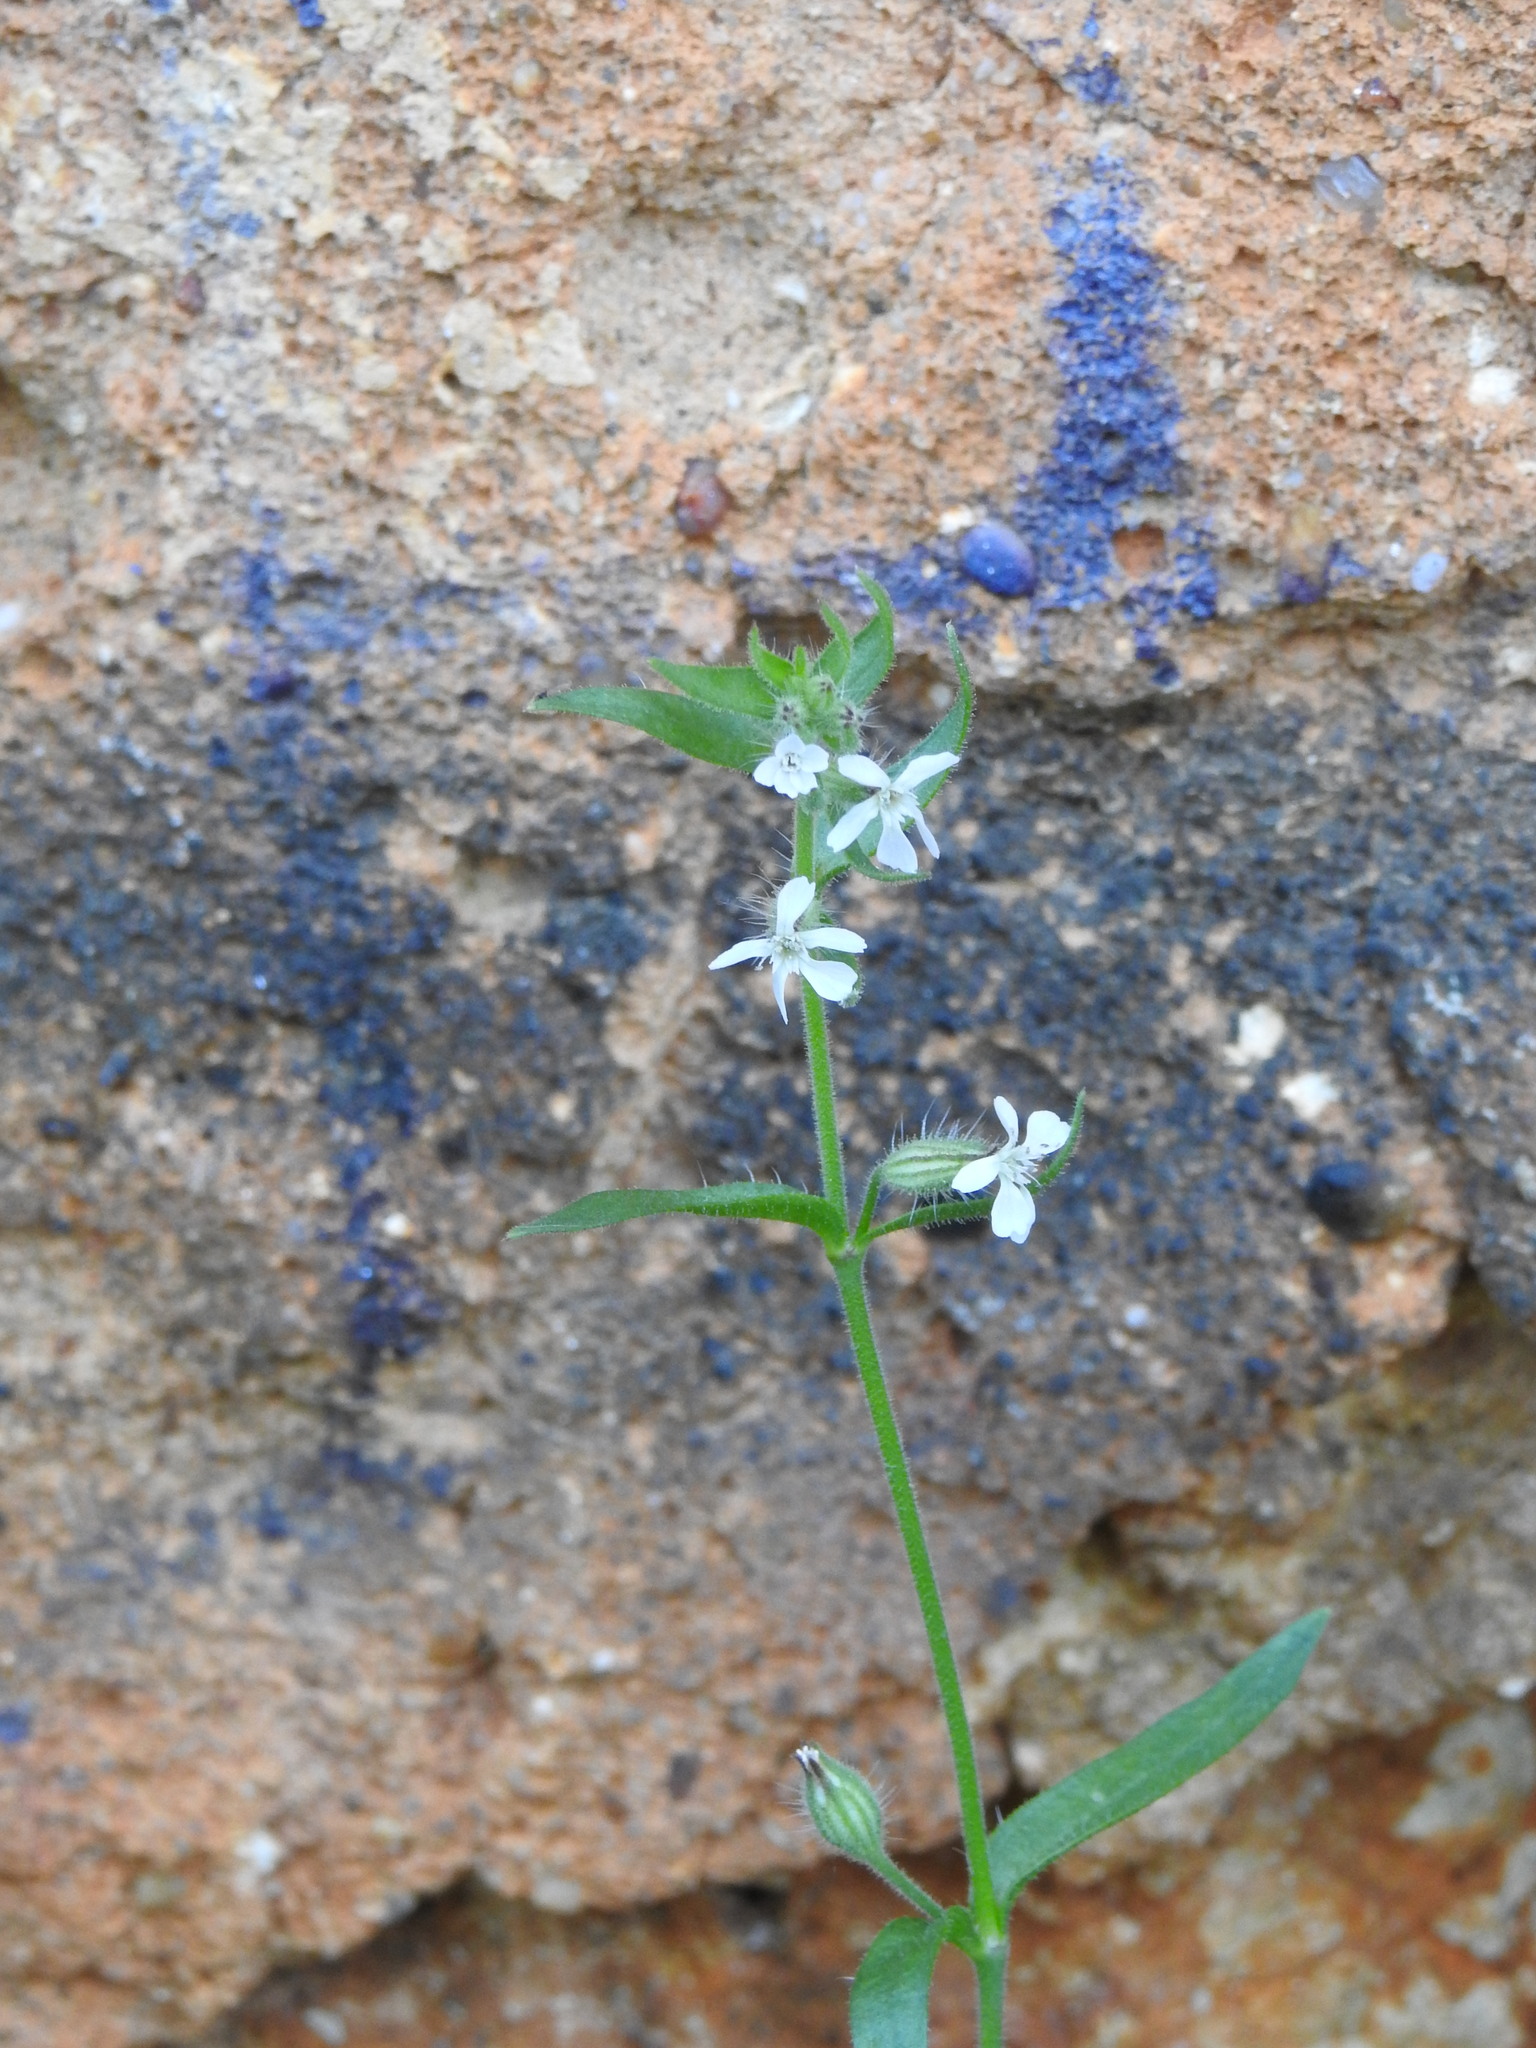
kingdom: Plantae
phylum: Tracheophyta
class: Magnoliopsida
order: Caryophyllales
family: Caryophyllaceae
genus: Silene
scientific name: Silene gallica
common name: Small-flowered catchfly
